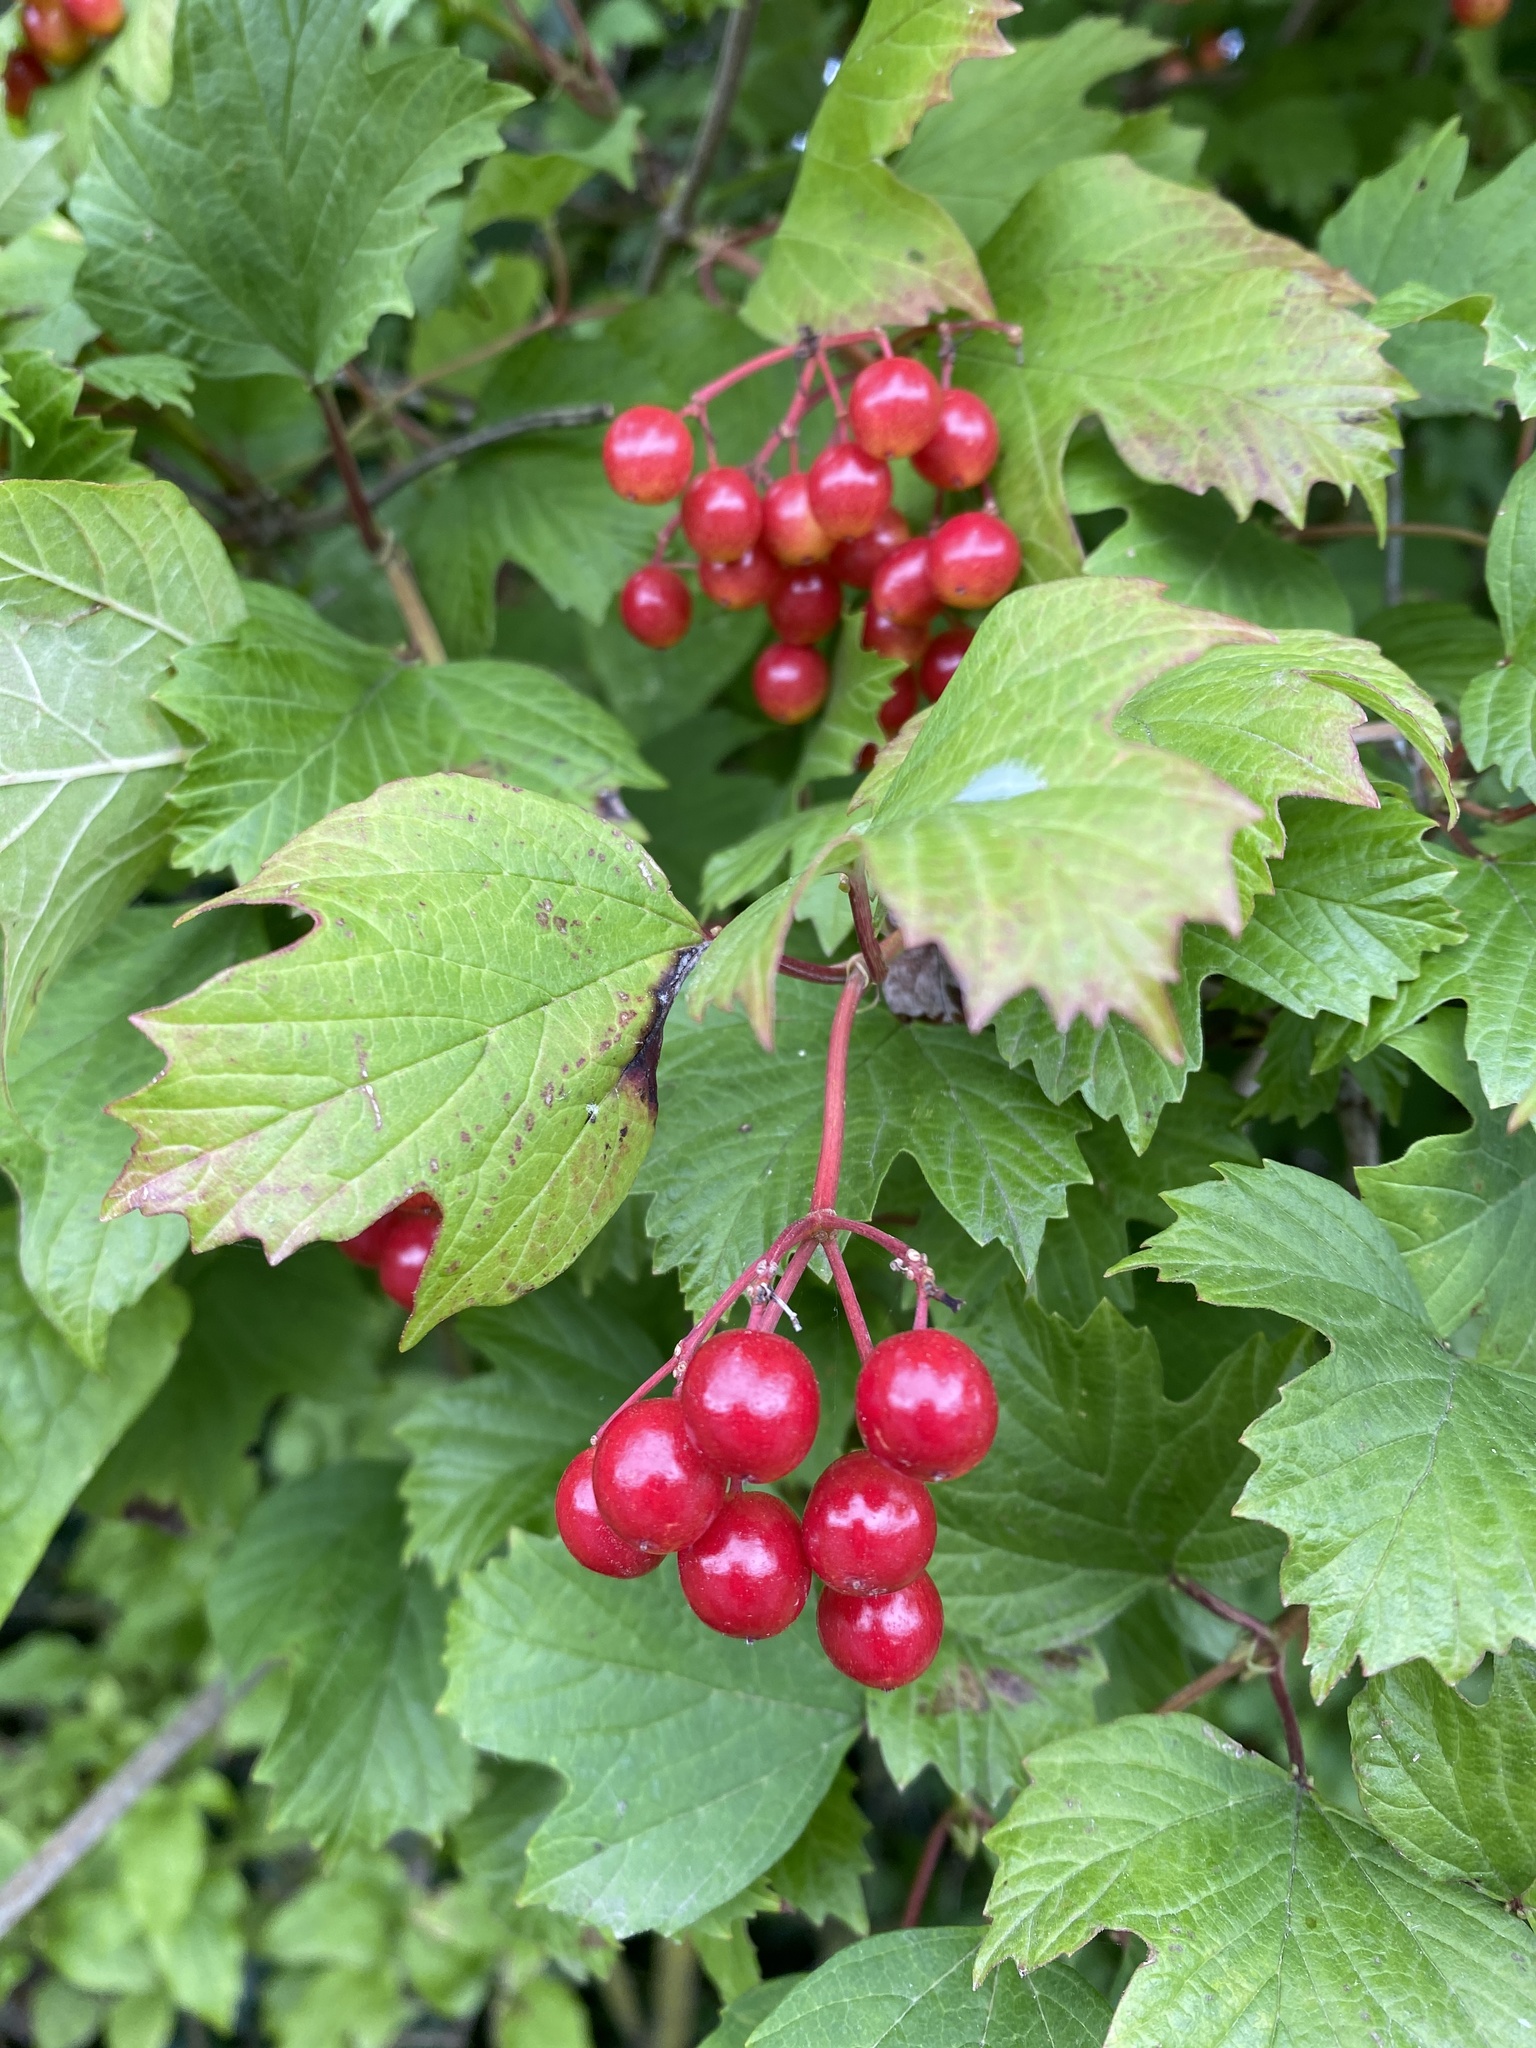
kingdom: Plantae
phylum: Tracheophyta
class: Magnoliopsida
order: Dipsacales
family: Viburnaceae
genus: Viburnum
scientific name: Viburnum opulus
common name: Guelder-rose
